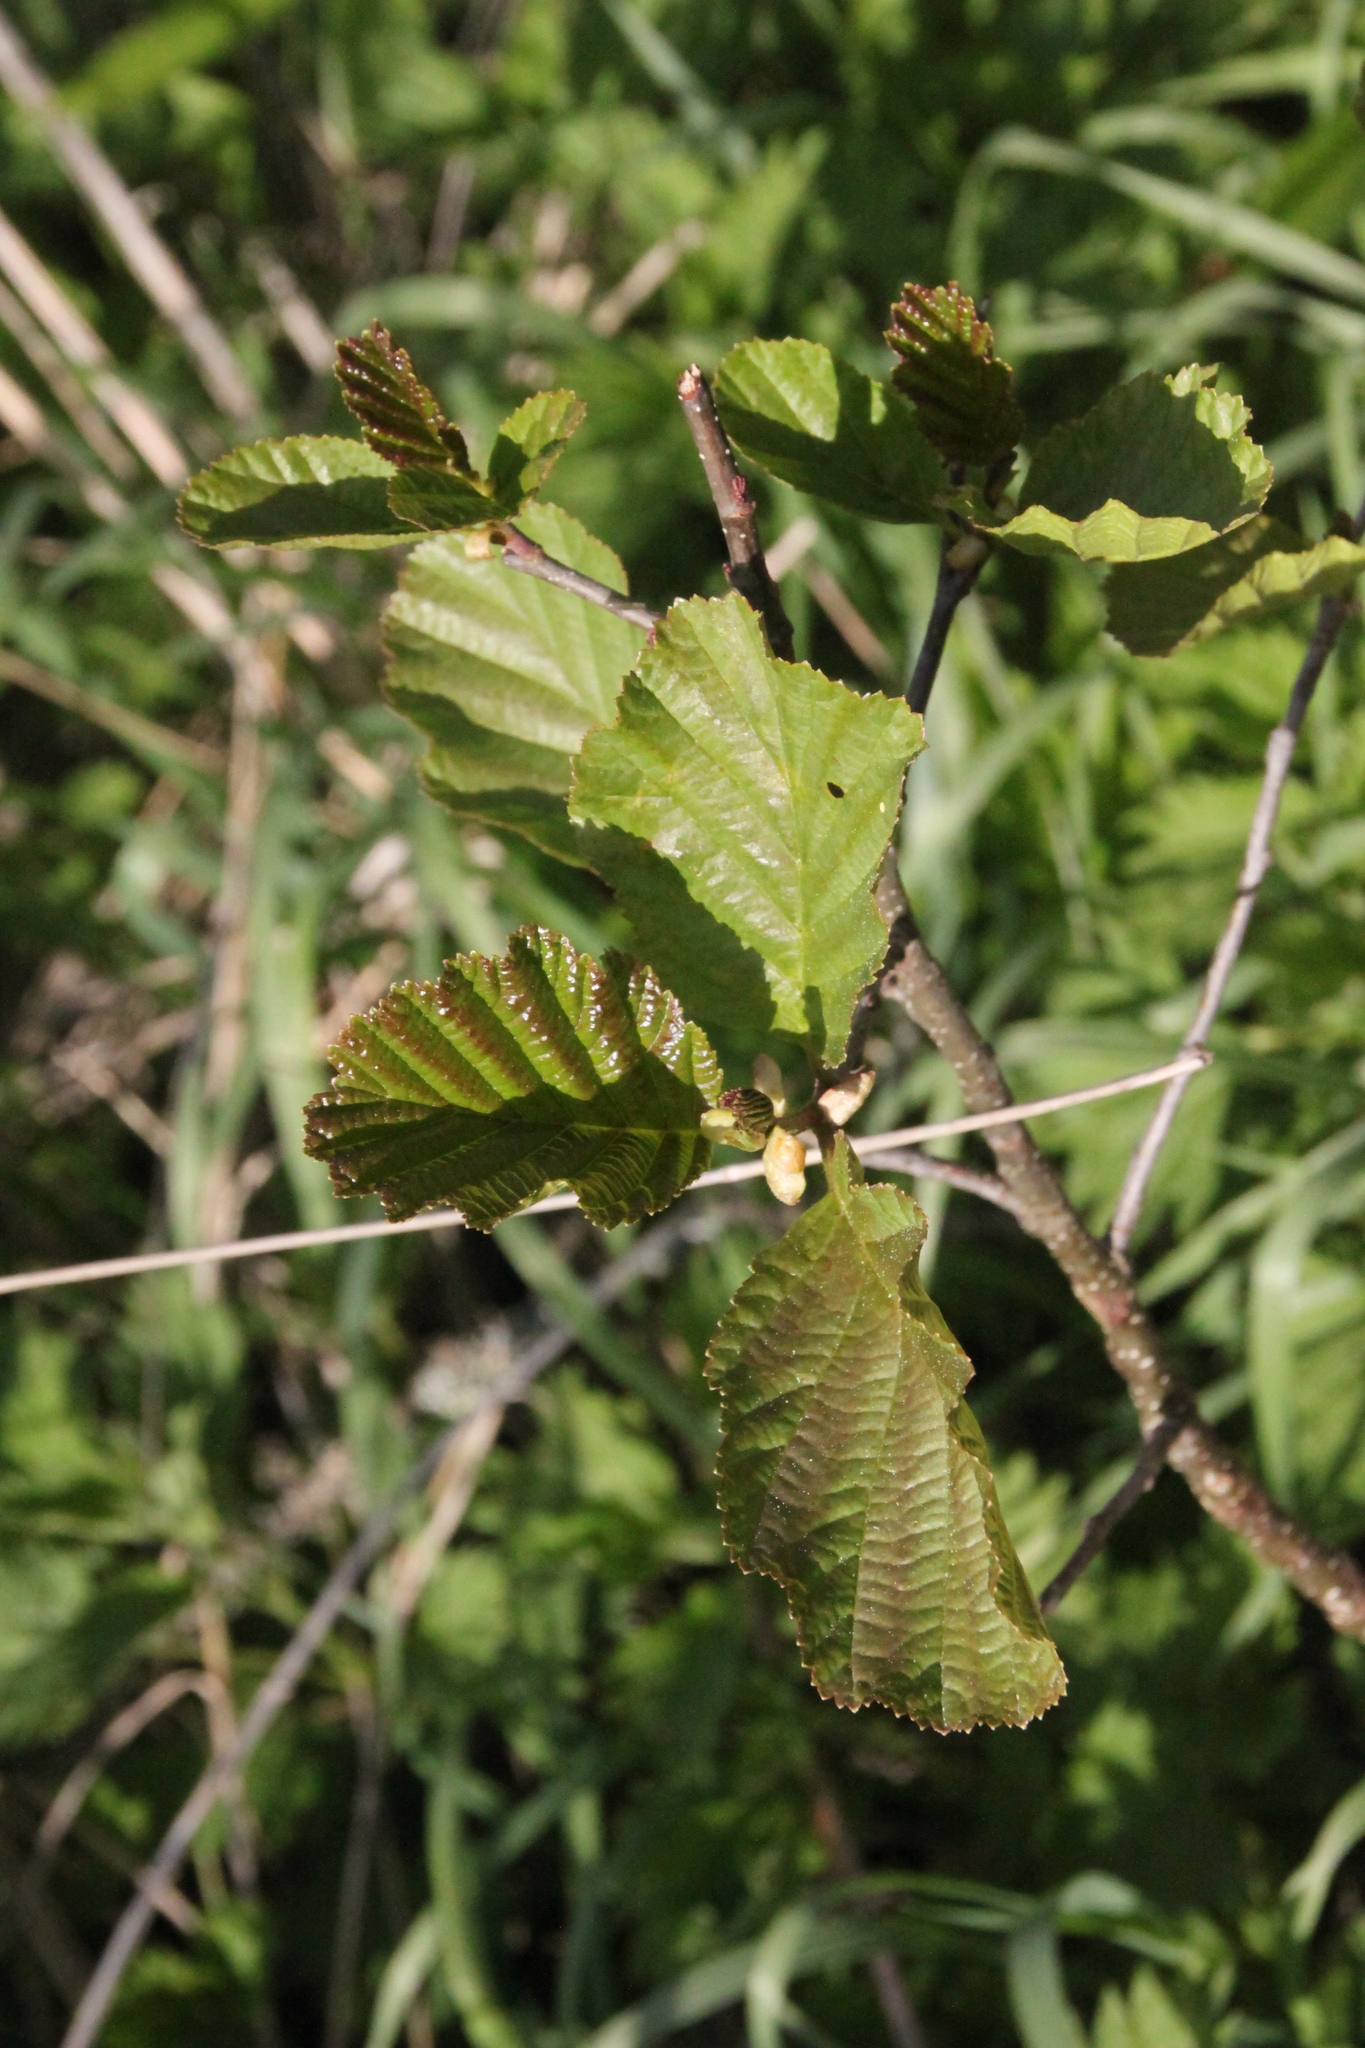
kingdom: Plantae
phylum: Tracheophyta
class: Magnoliopsida
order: Fagales
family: Betulaceae
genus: Alnus
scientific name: Alnus glutinosa
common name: Black alder
